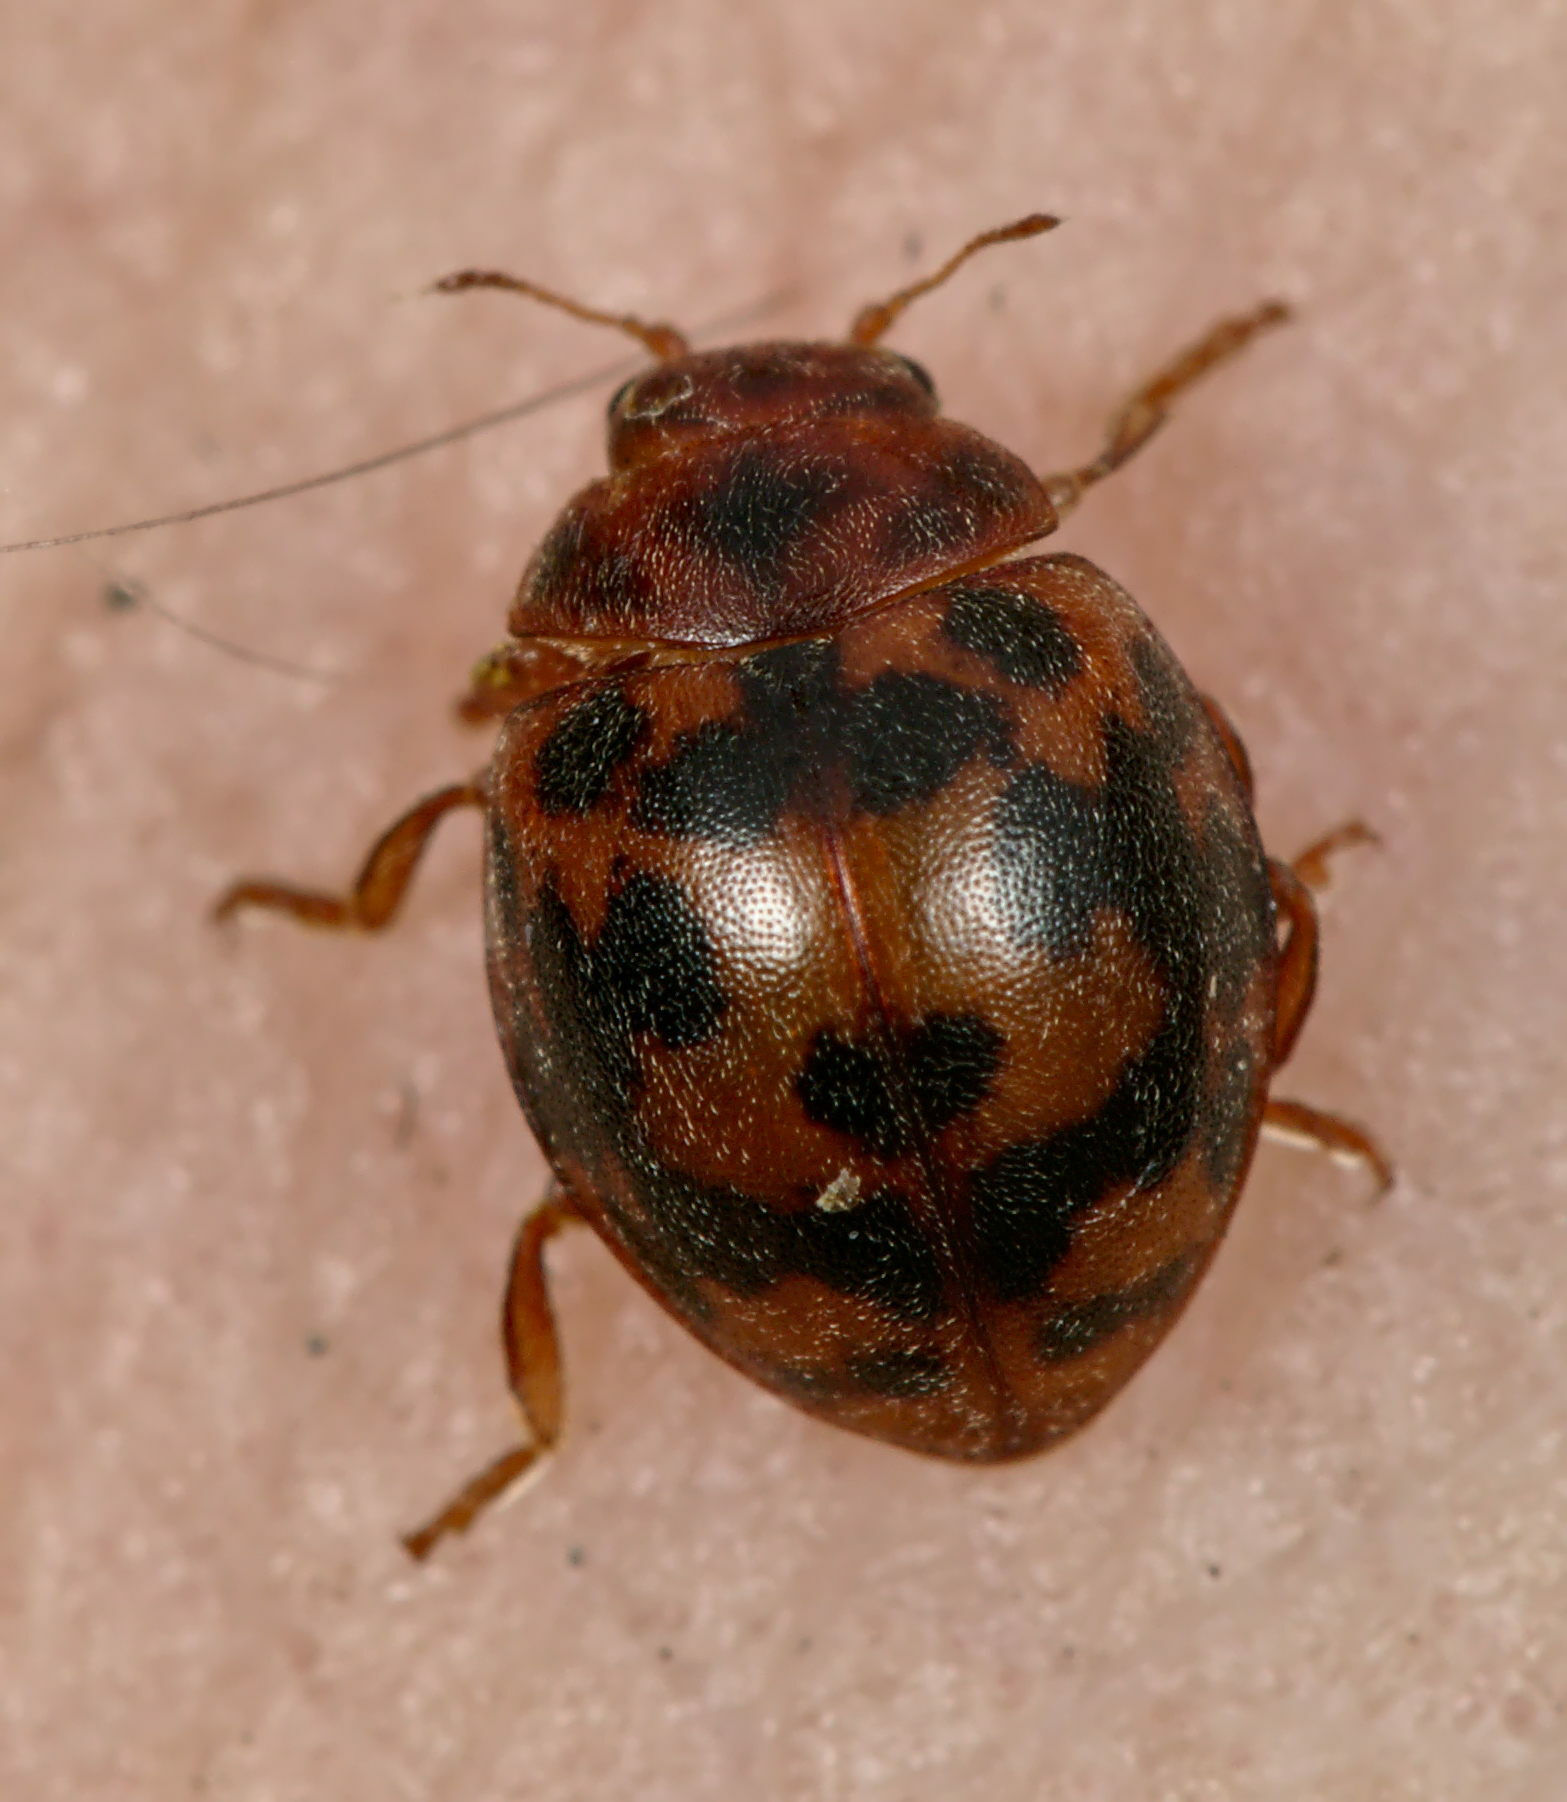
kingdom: Animalia
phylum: Arthropoda
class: Insecta
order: Coleoptera
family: Coccinellidae
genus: Subcoccinella
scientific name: Subcoccinella vigintiquatuorpunctata
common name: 24-spot ladybird
